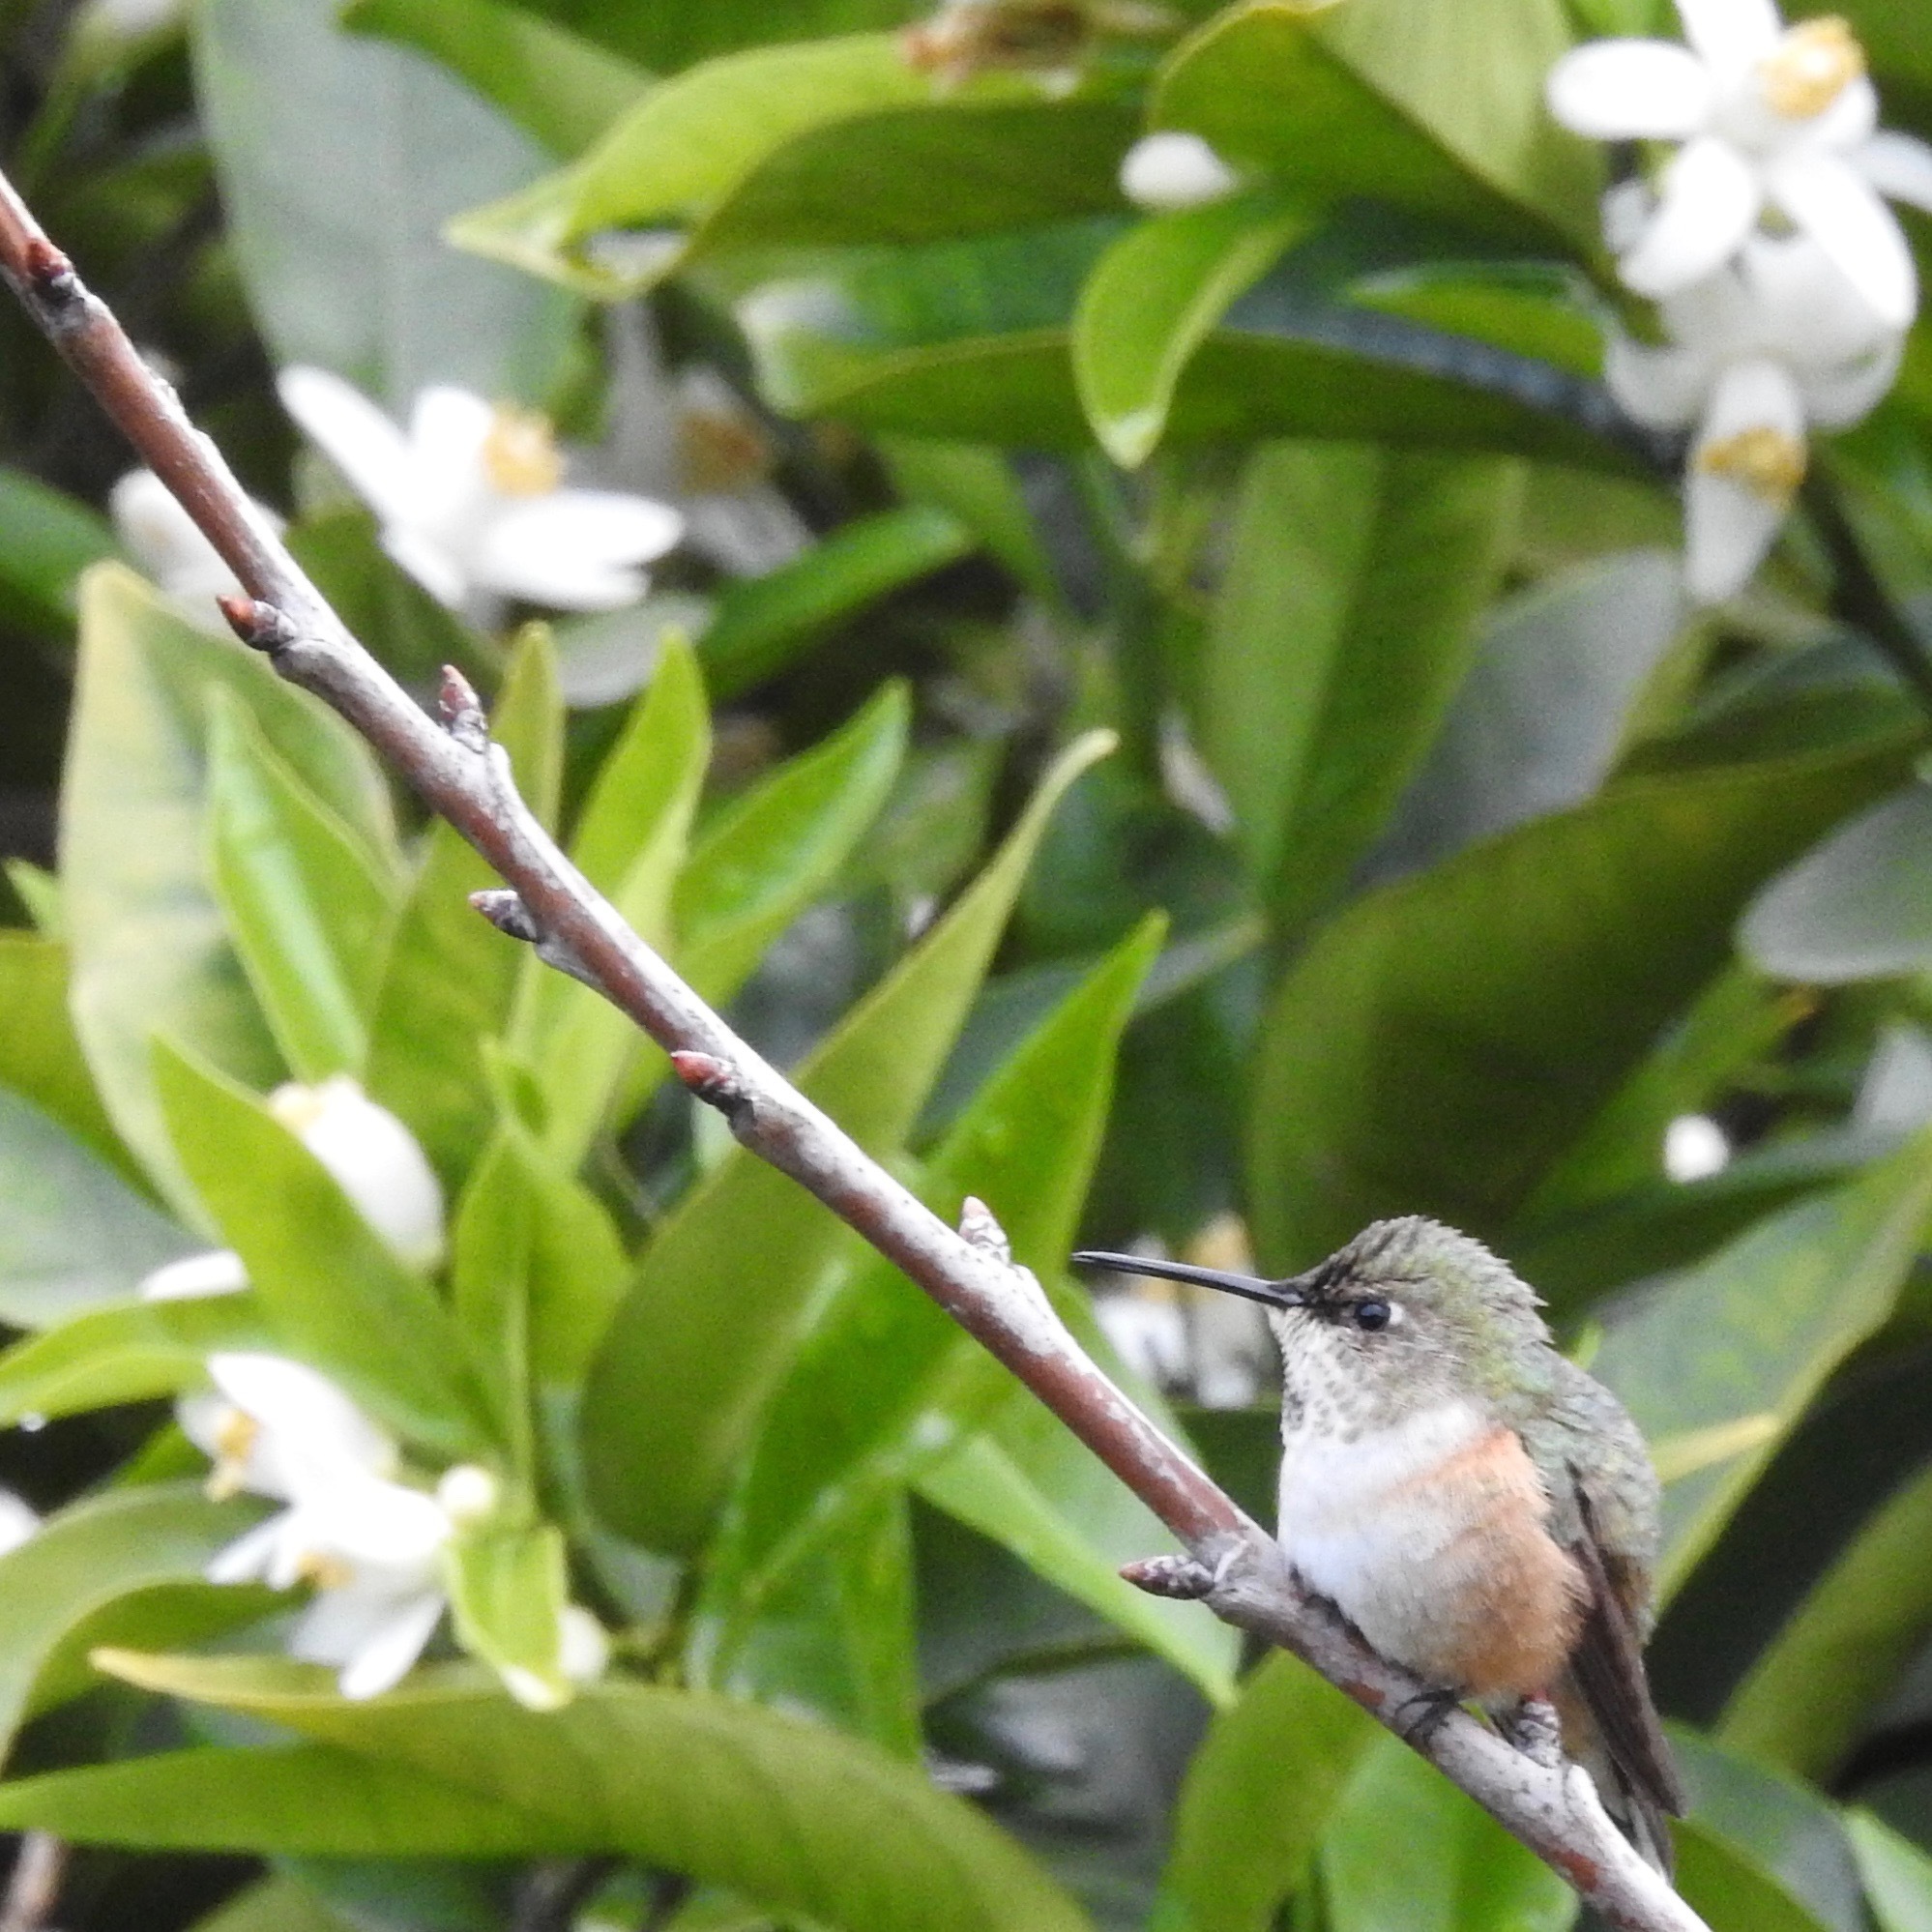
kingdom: Animalia
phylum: Chordata
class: Aves
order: Apodiformes
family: Trochilidae
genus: Selasphorus
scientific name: Selasphorus
